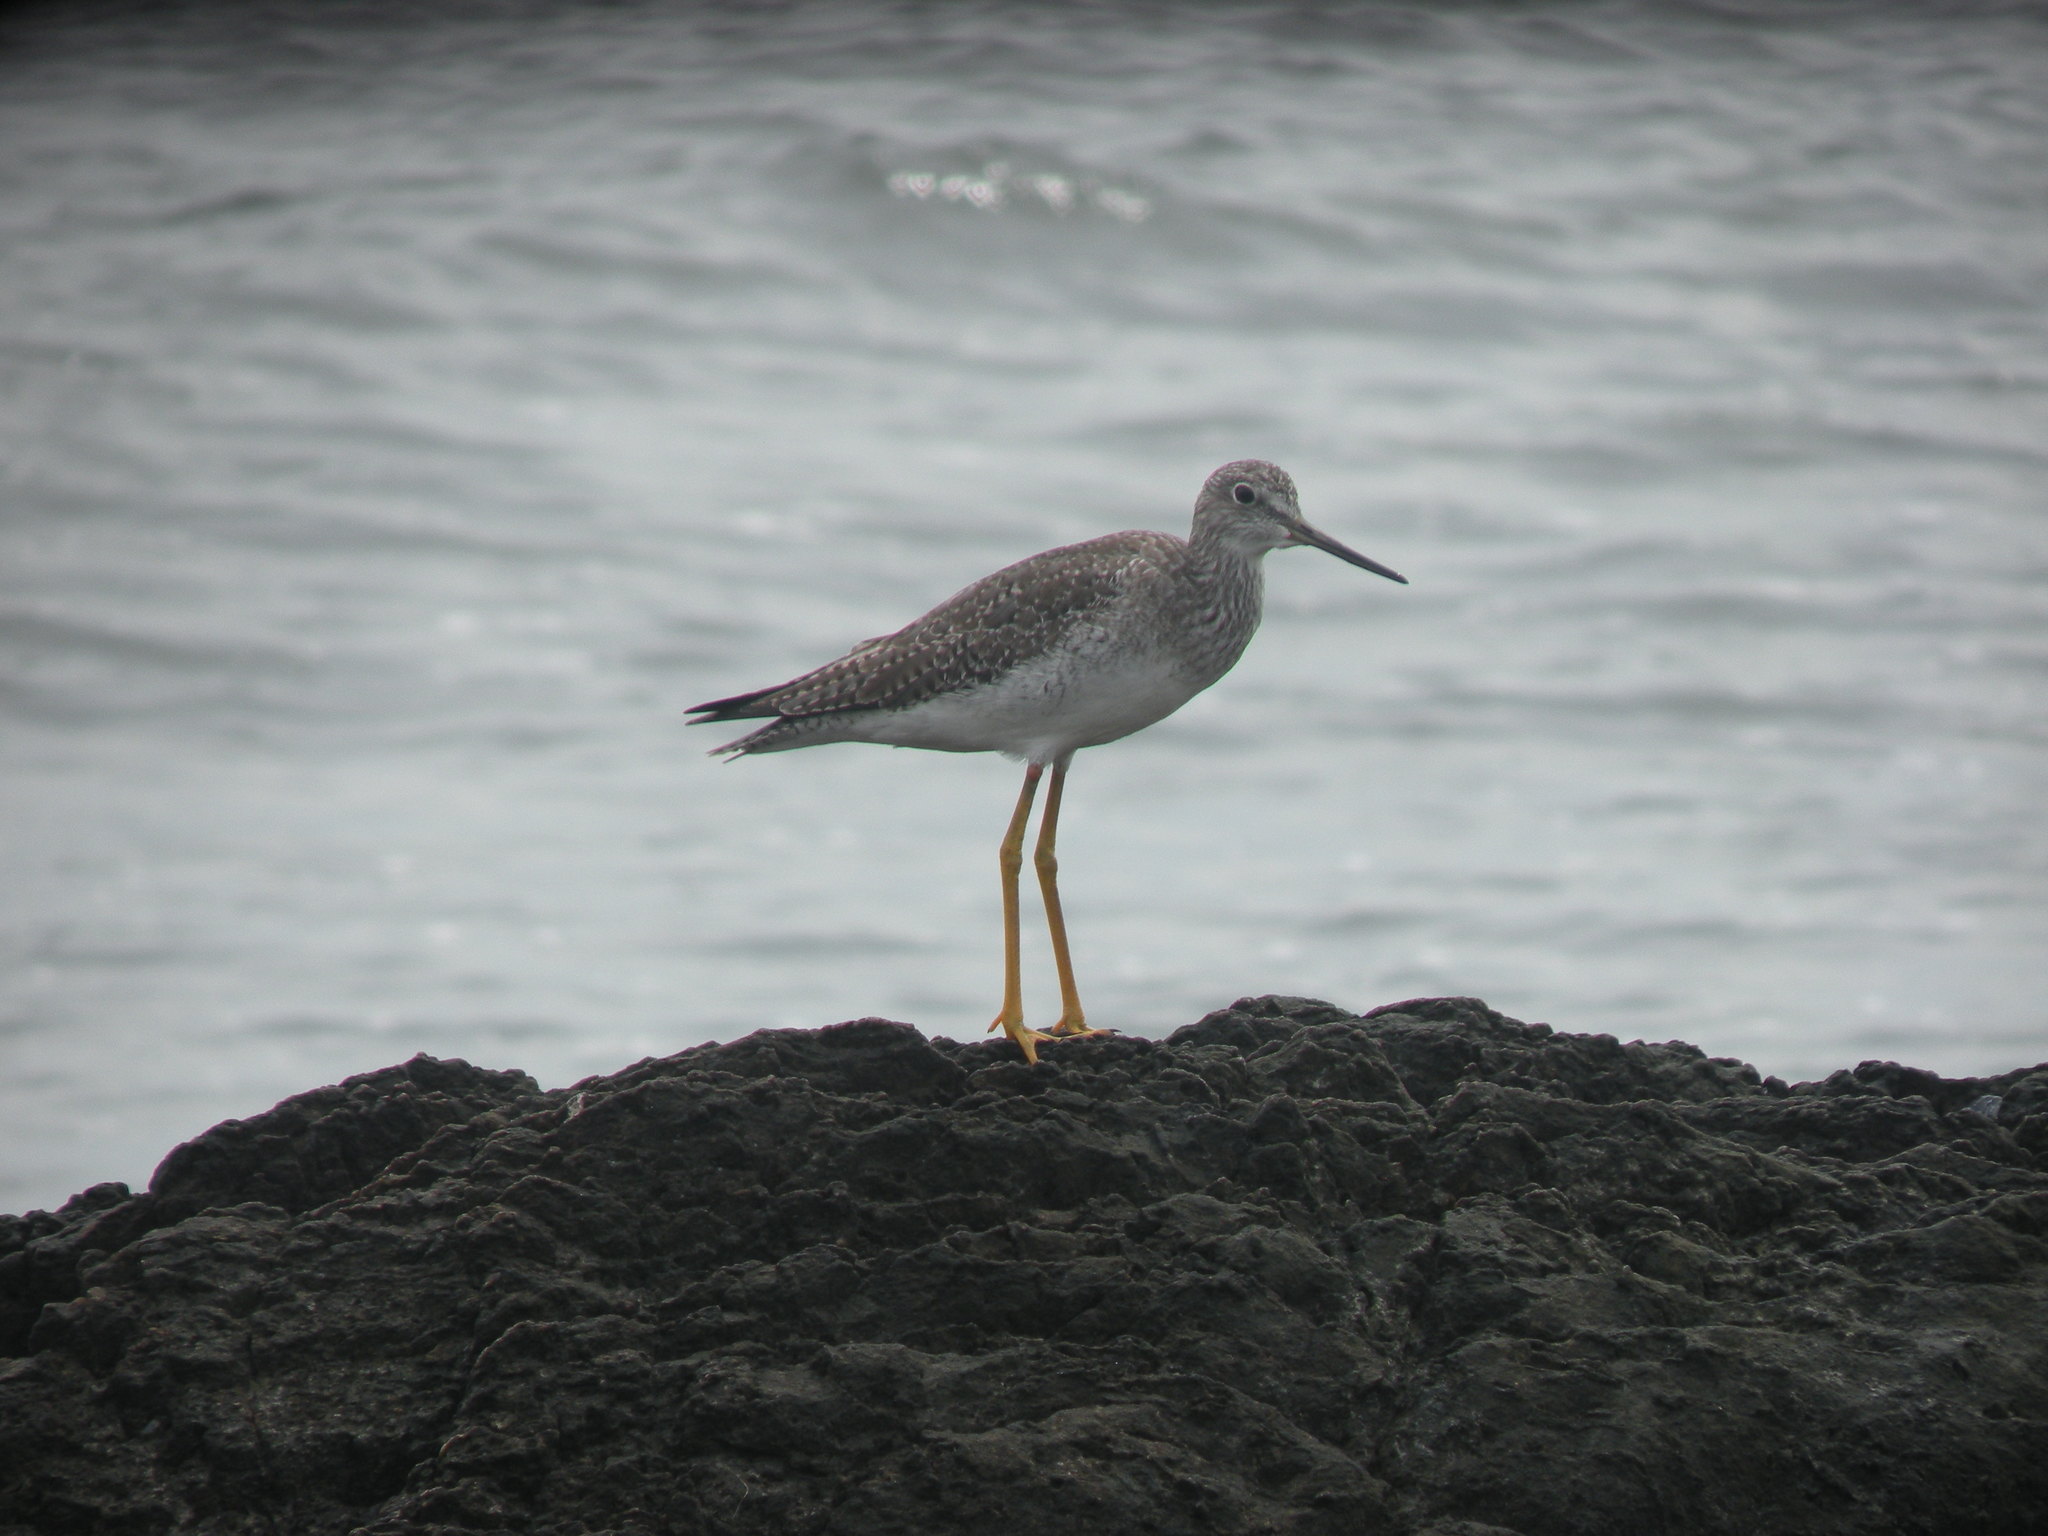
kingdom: Animalia
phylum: Chordata
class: Aves
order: Charadriiformes
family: Scolopacidae
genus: Tringa
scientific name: Tringa melanoleuca
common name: Greater yellowlegs
